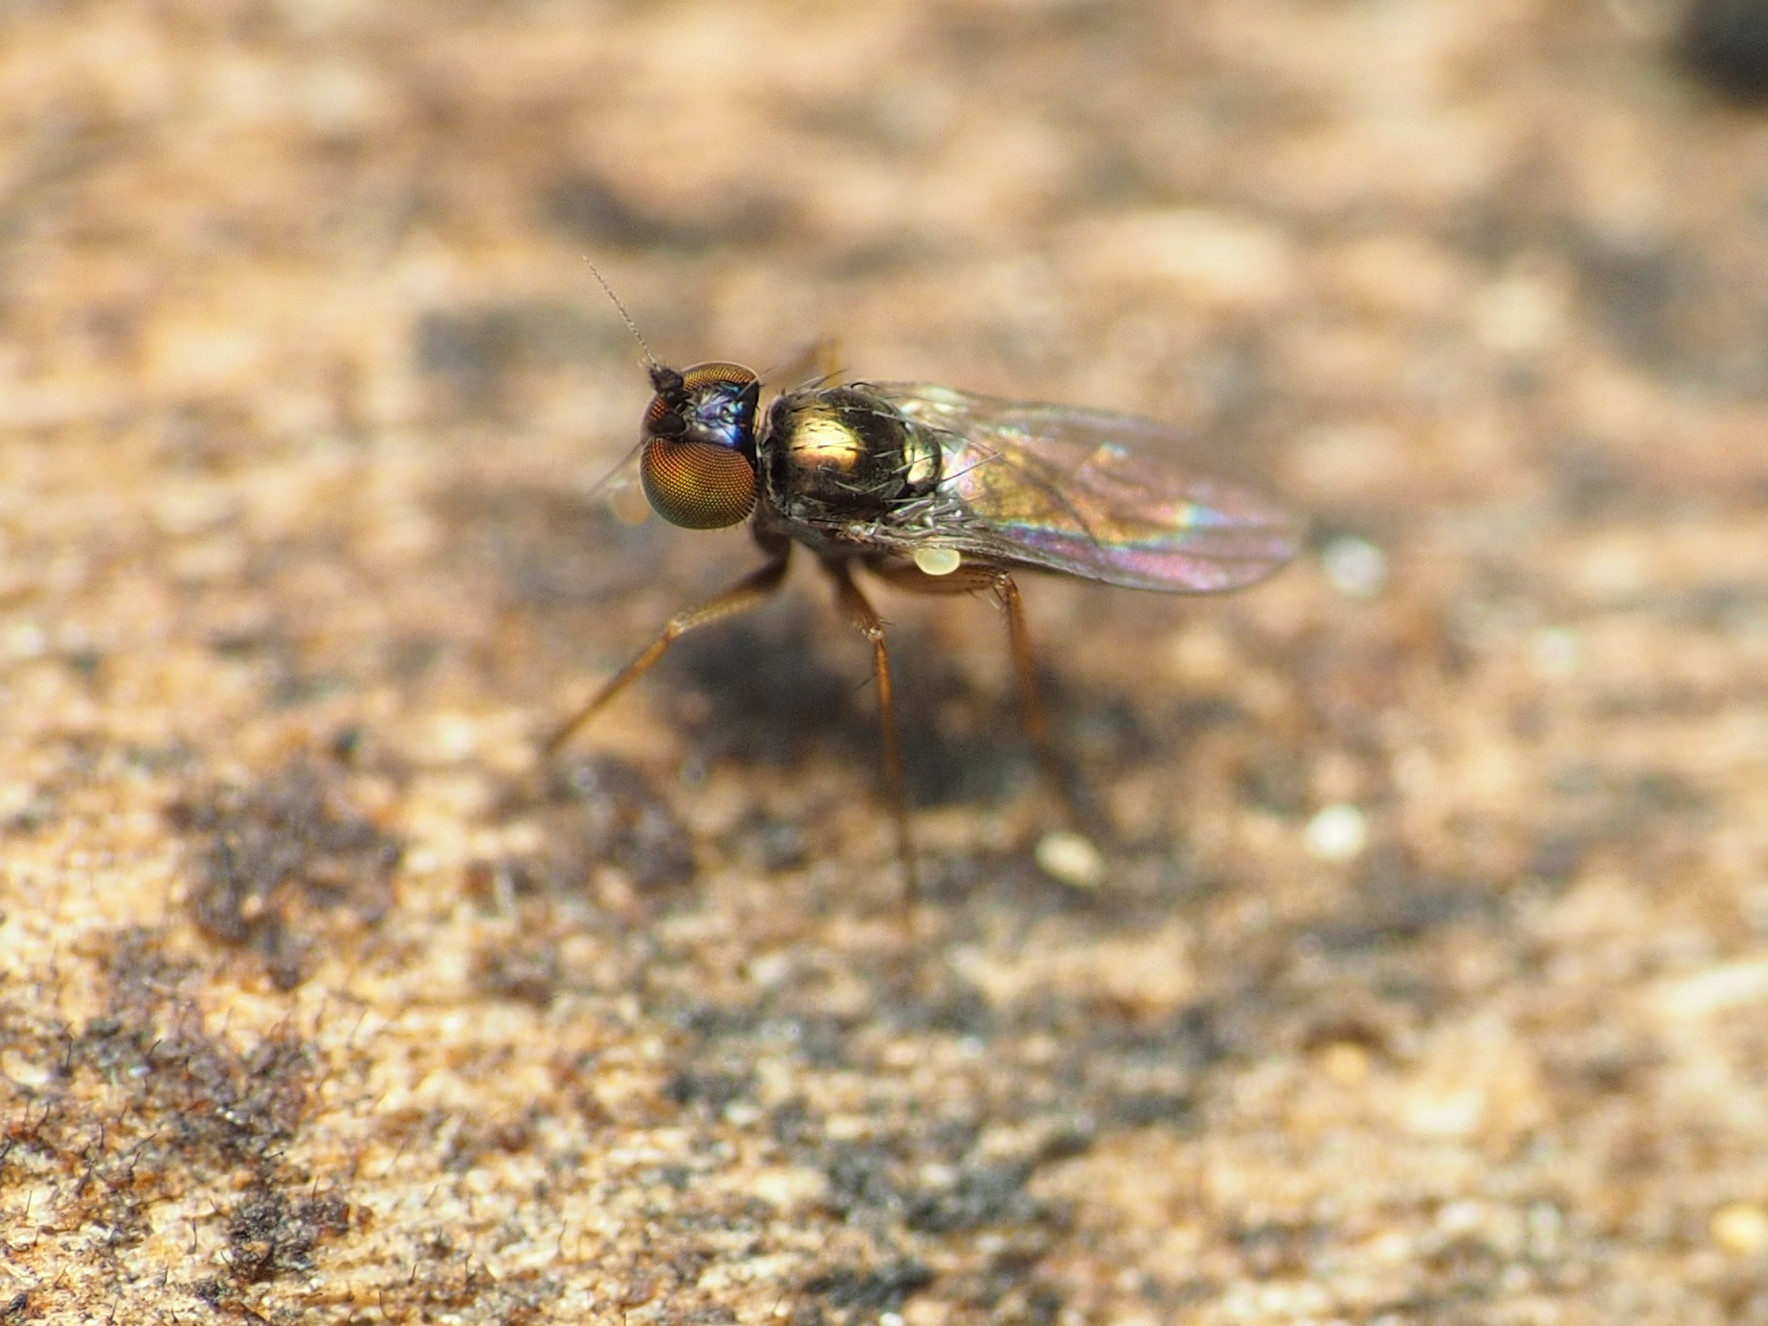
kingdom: Animalia
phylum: Arthropoda
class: Insecta
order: Diptera
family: Dolichopodidae
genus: Chrysotus
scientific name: Chrysotus crosbyi
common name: Longlegged fly
